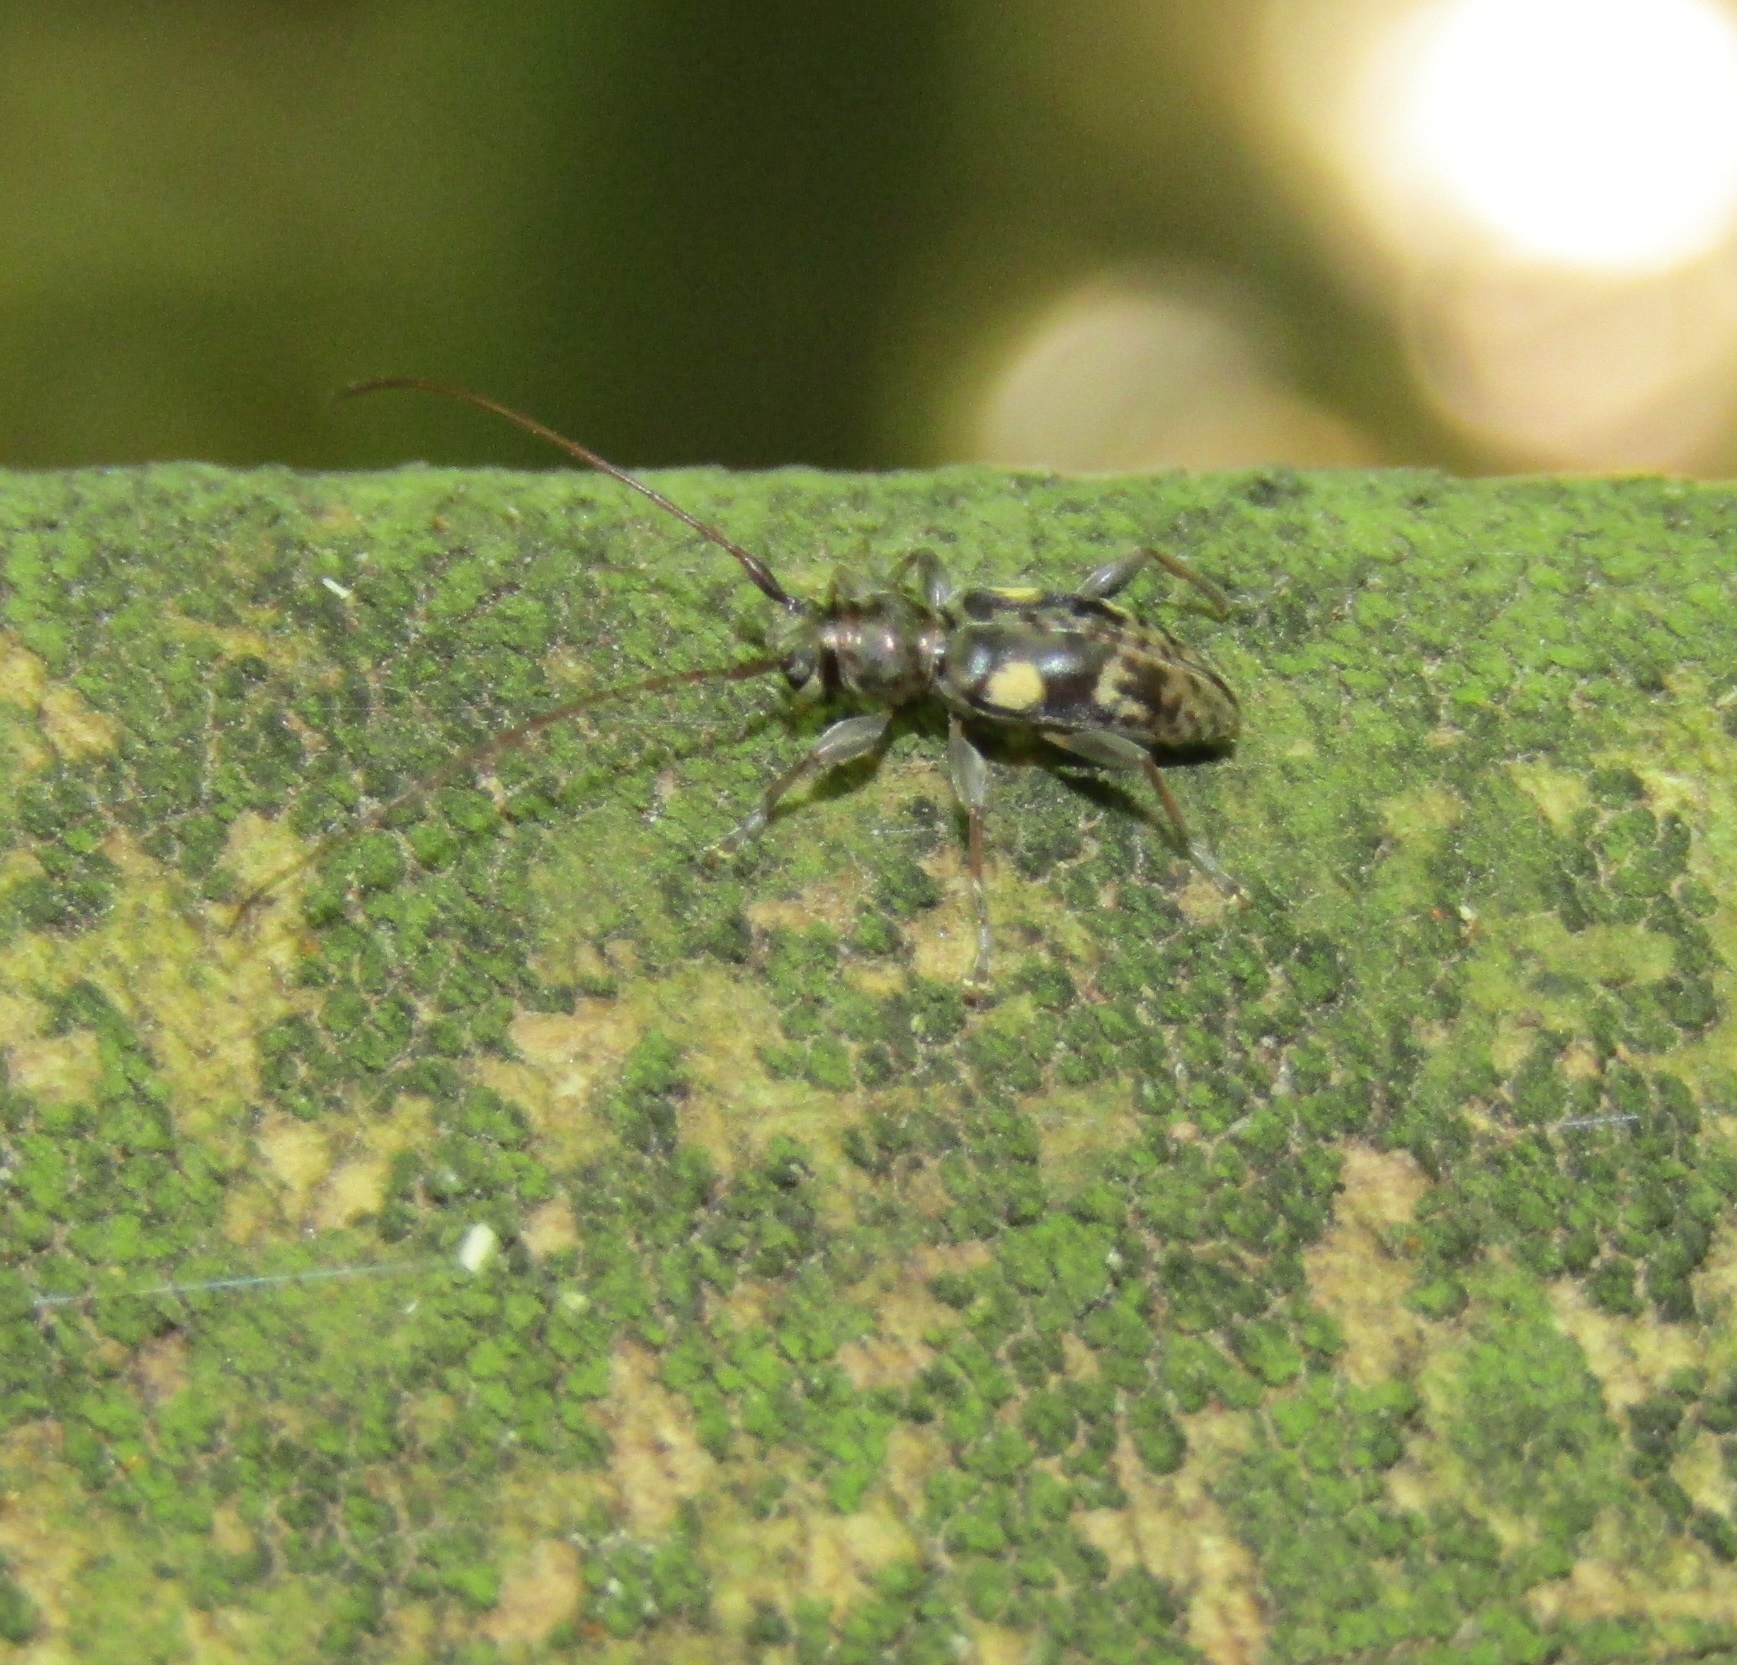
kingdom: Animalia
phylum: Arthropoda
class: Insecta
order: Coleoptera
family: Cerambycidae
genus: Stenellipsis
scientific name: Stenellipsis bimaculata
